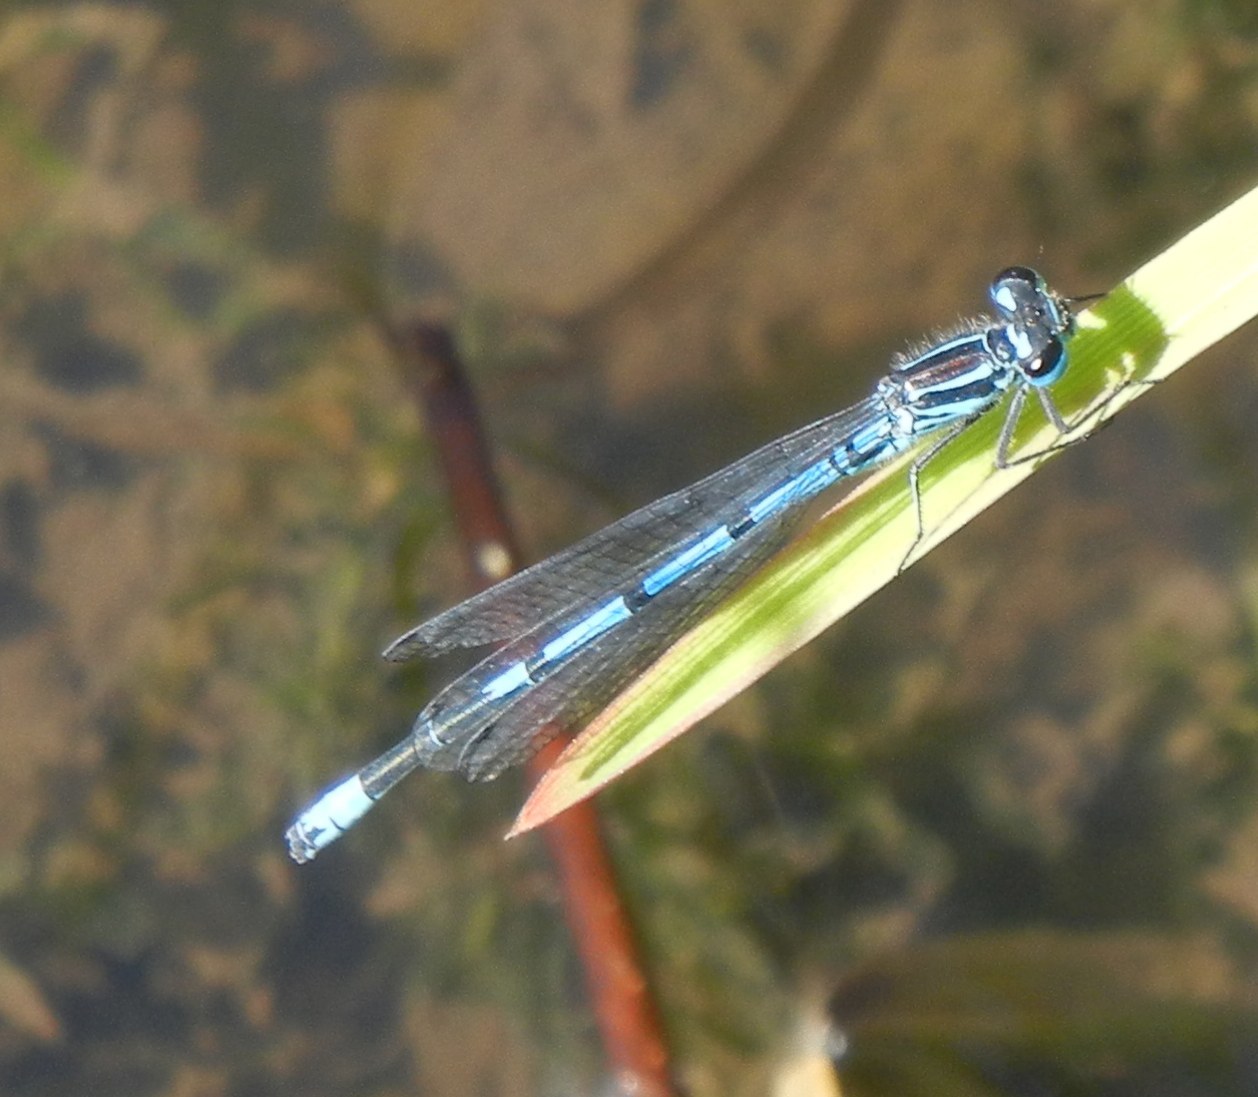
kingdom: Animalia
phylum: Arthropoda
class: Insecta
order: Odonata
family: Coenagrionidae
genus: Coenagrion
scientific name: Coenagrion puella
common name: Azure damselfly
